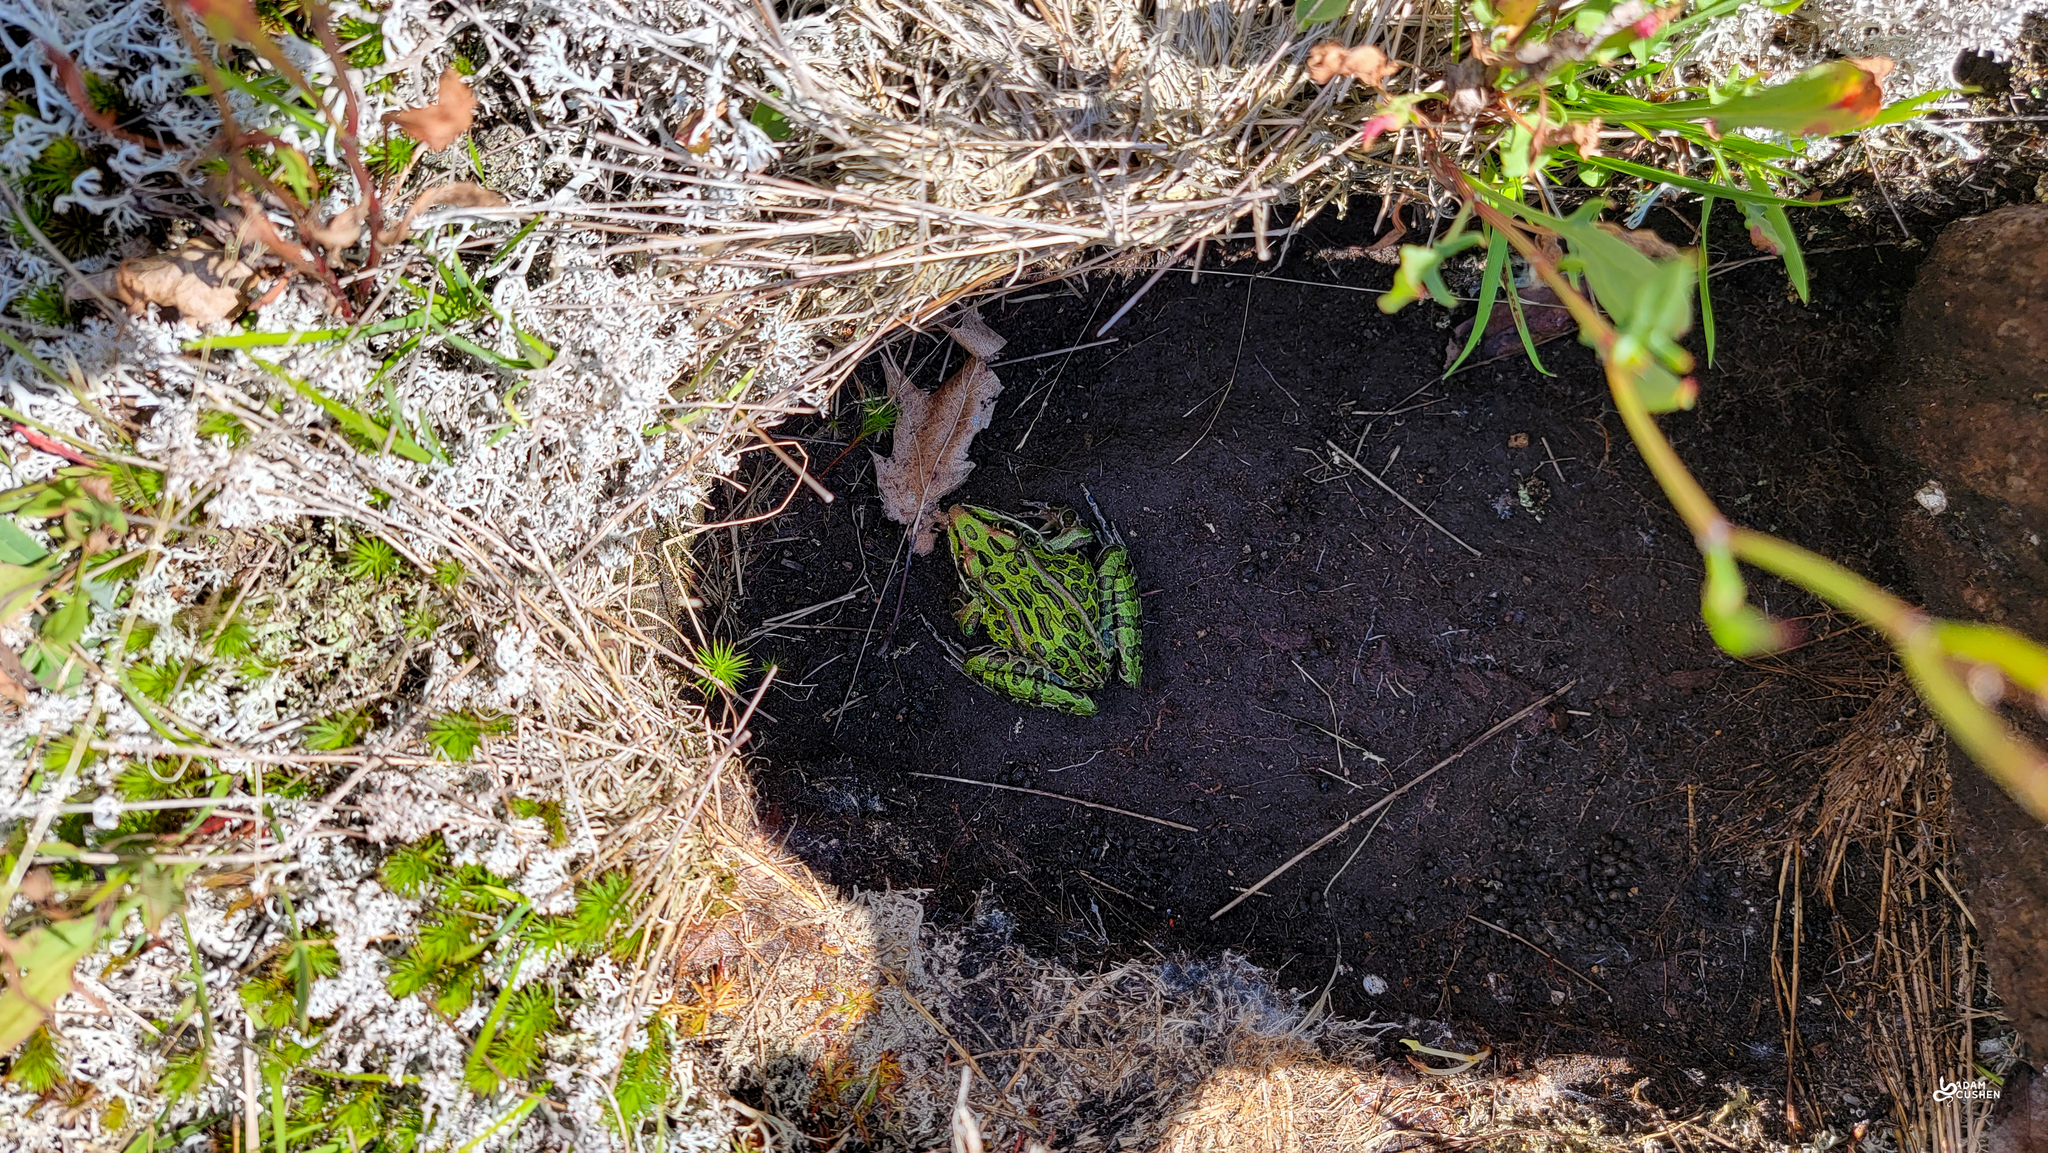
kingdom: Animalia
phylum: Chordata
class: Amphibia
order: Anura
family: Ranidae
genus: Lithobates
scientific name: Lithobates pipiens
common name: Northern leopard frog
